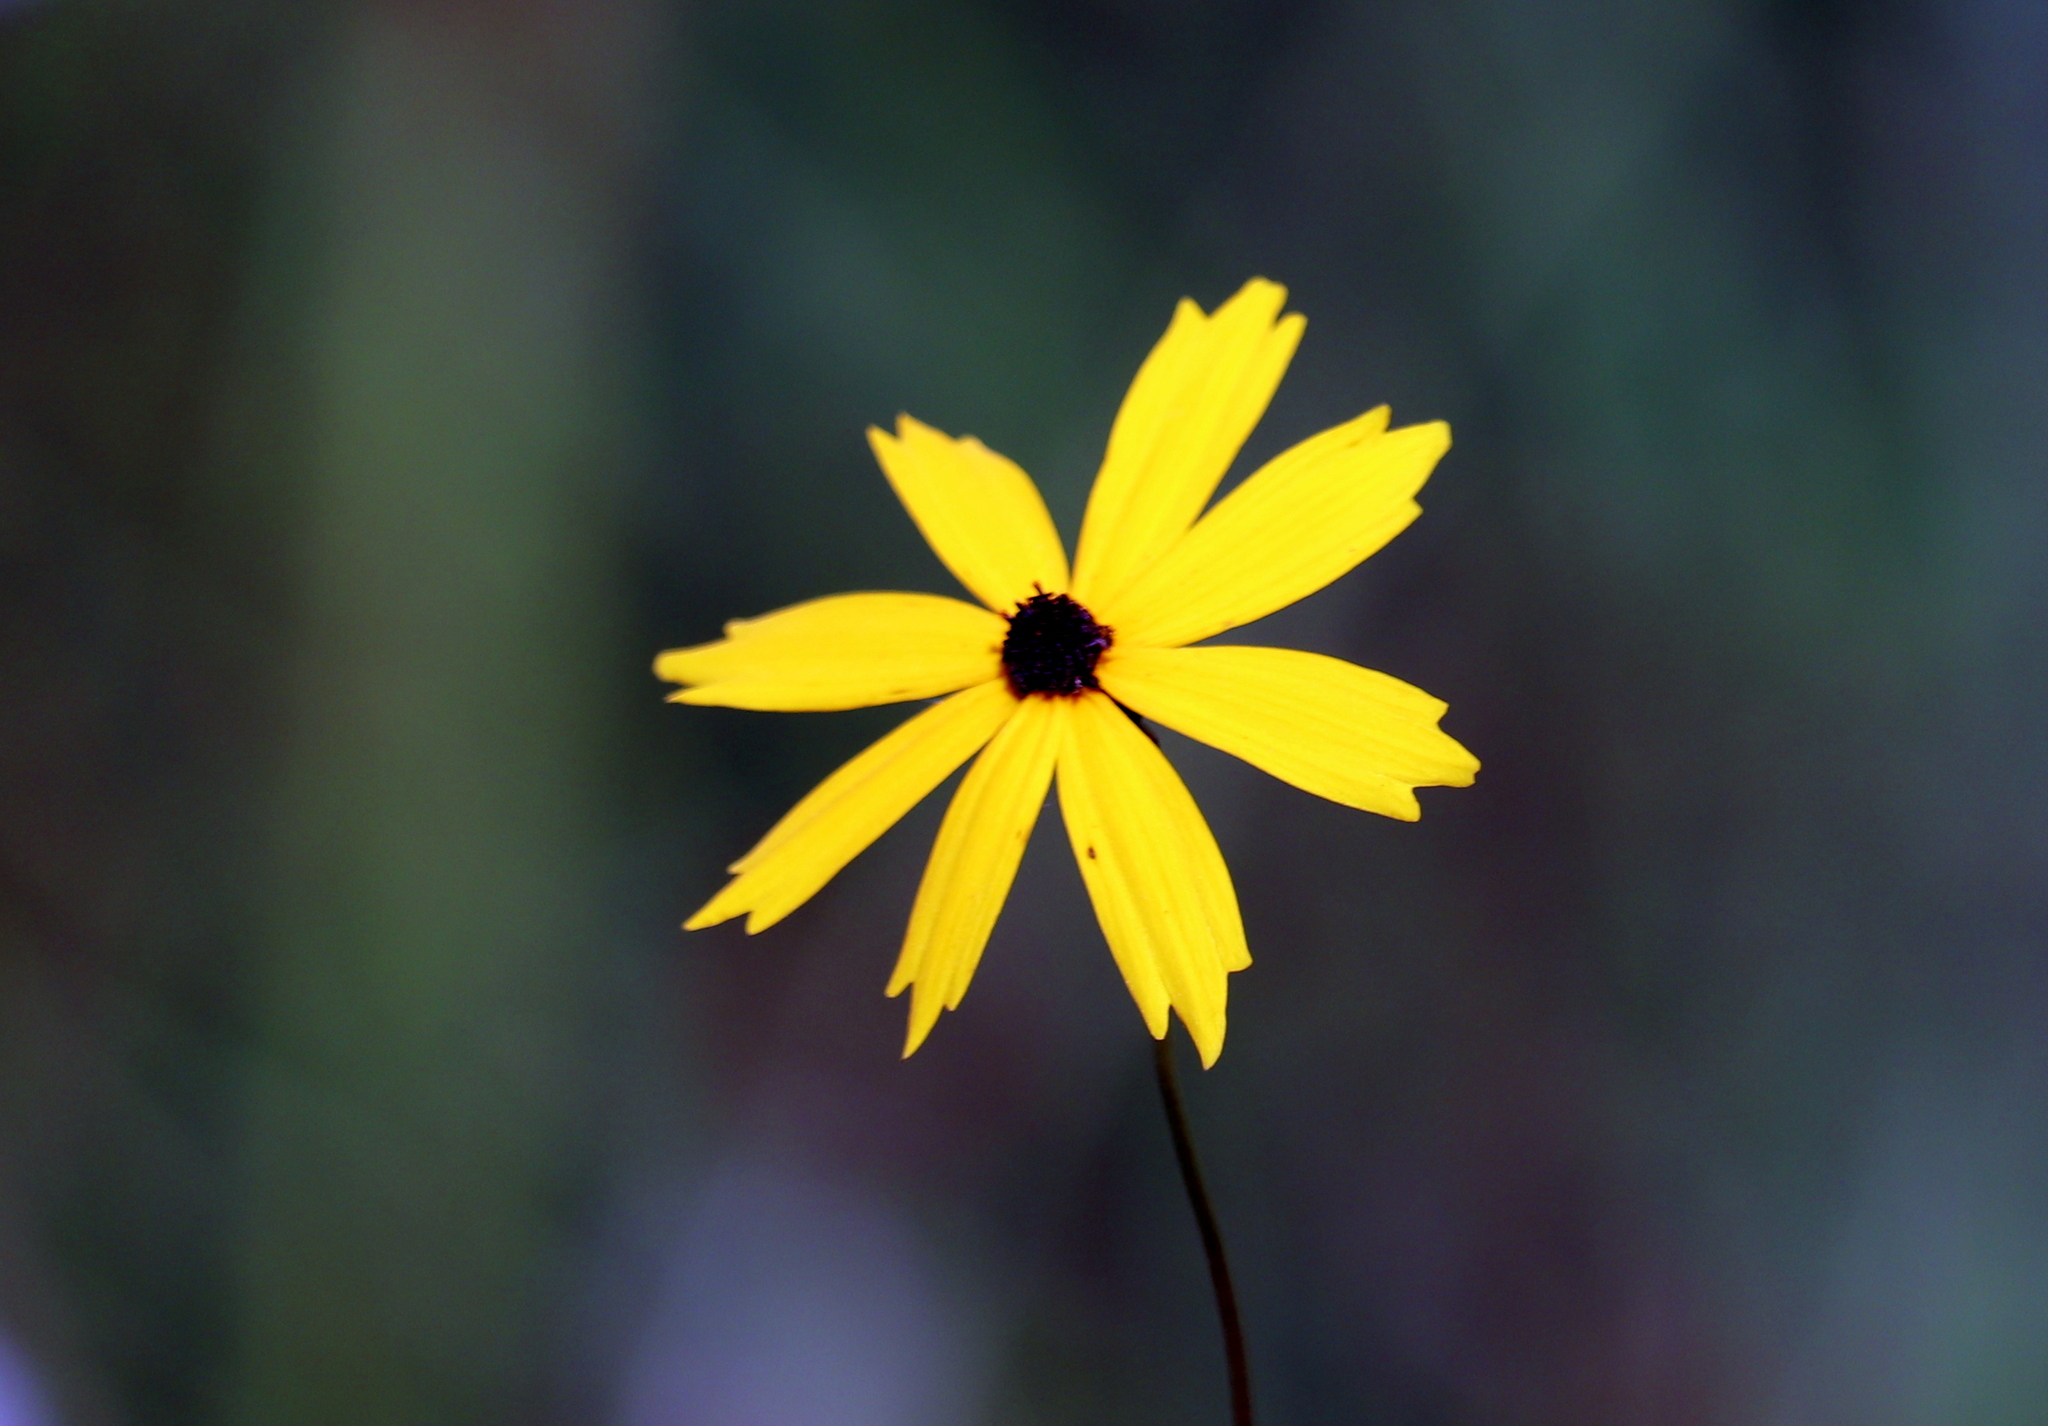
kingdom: Plantae
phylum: Tracheophyta
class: Magnoliopsida
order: Asterales
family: Asteraceae
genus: Coreopsis
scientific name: Coreopsis gladiata
